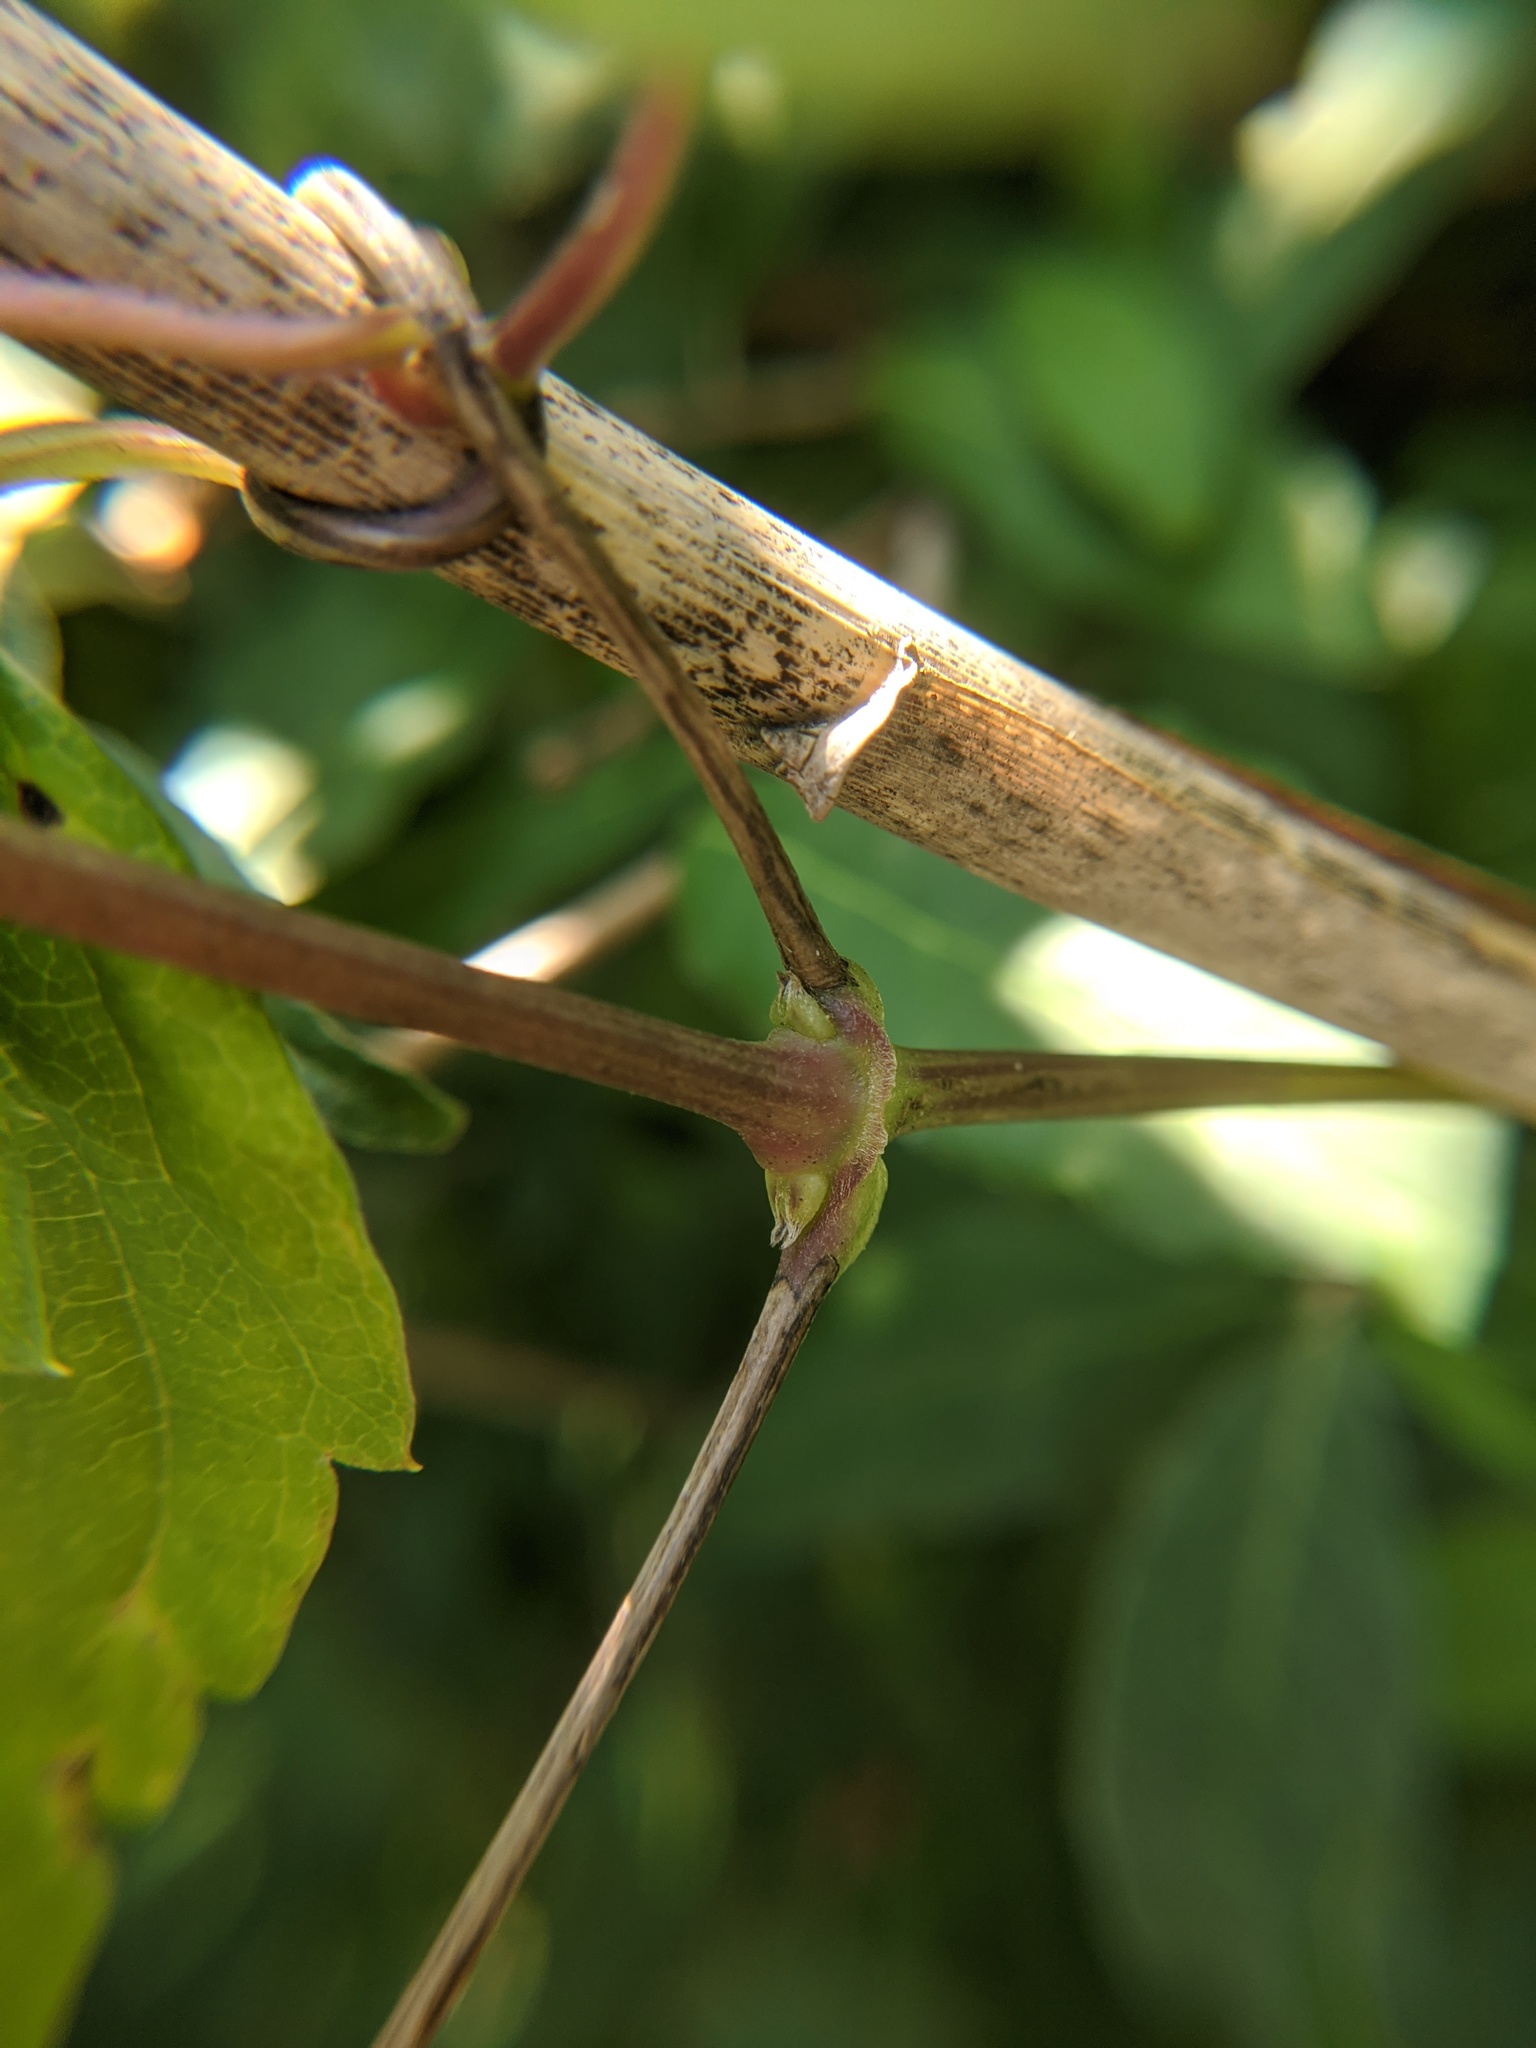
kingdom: Plantae
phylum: Tracheophyta
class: Magnoliopsida
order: Ranunculales
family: Ranunculaceae
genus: Clematis
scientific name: Clematis virginiana
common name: Virgin's-bower
